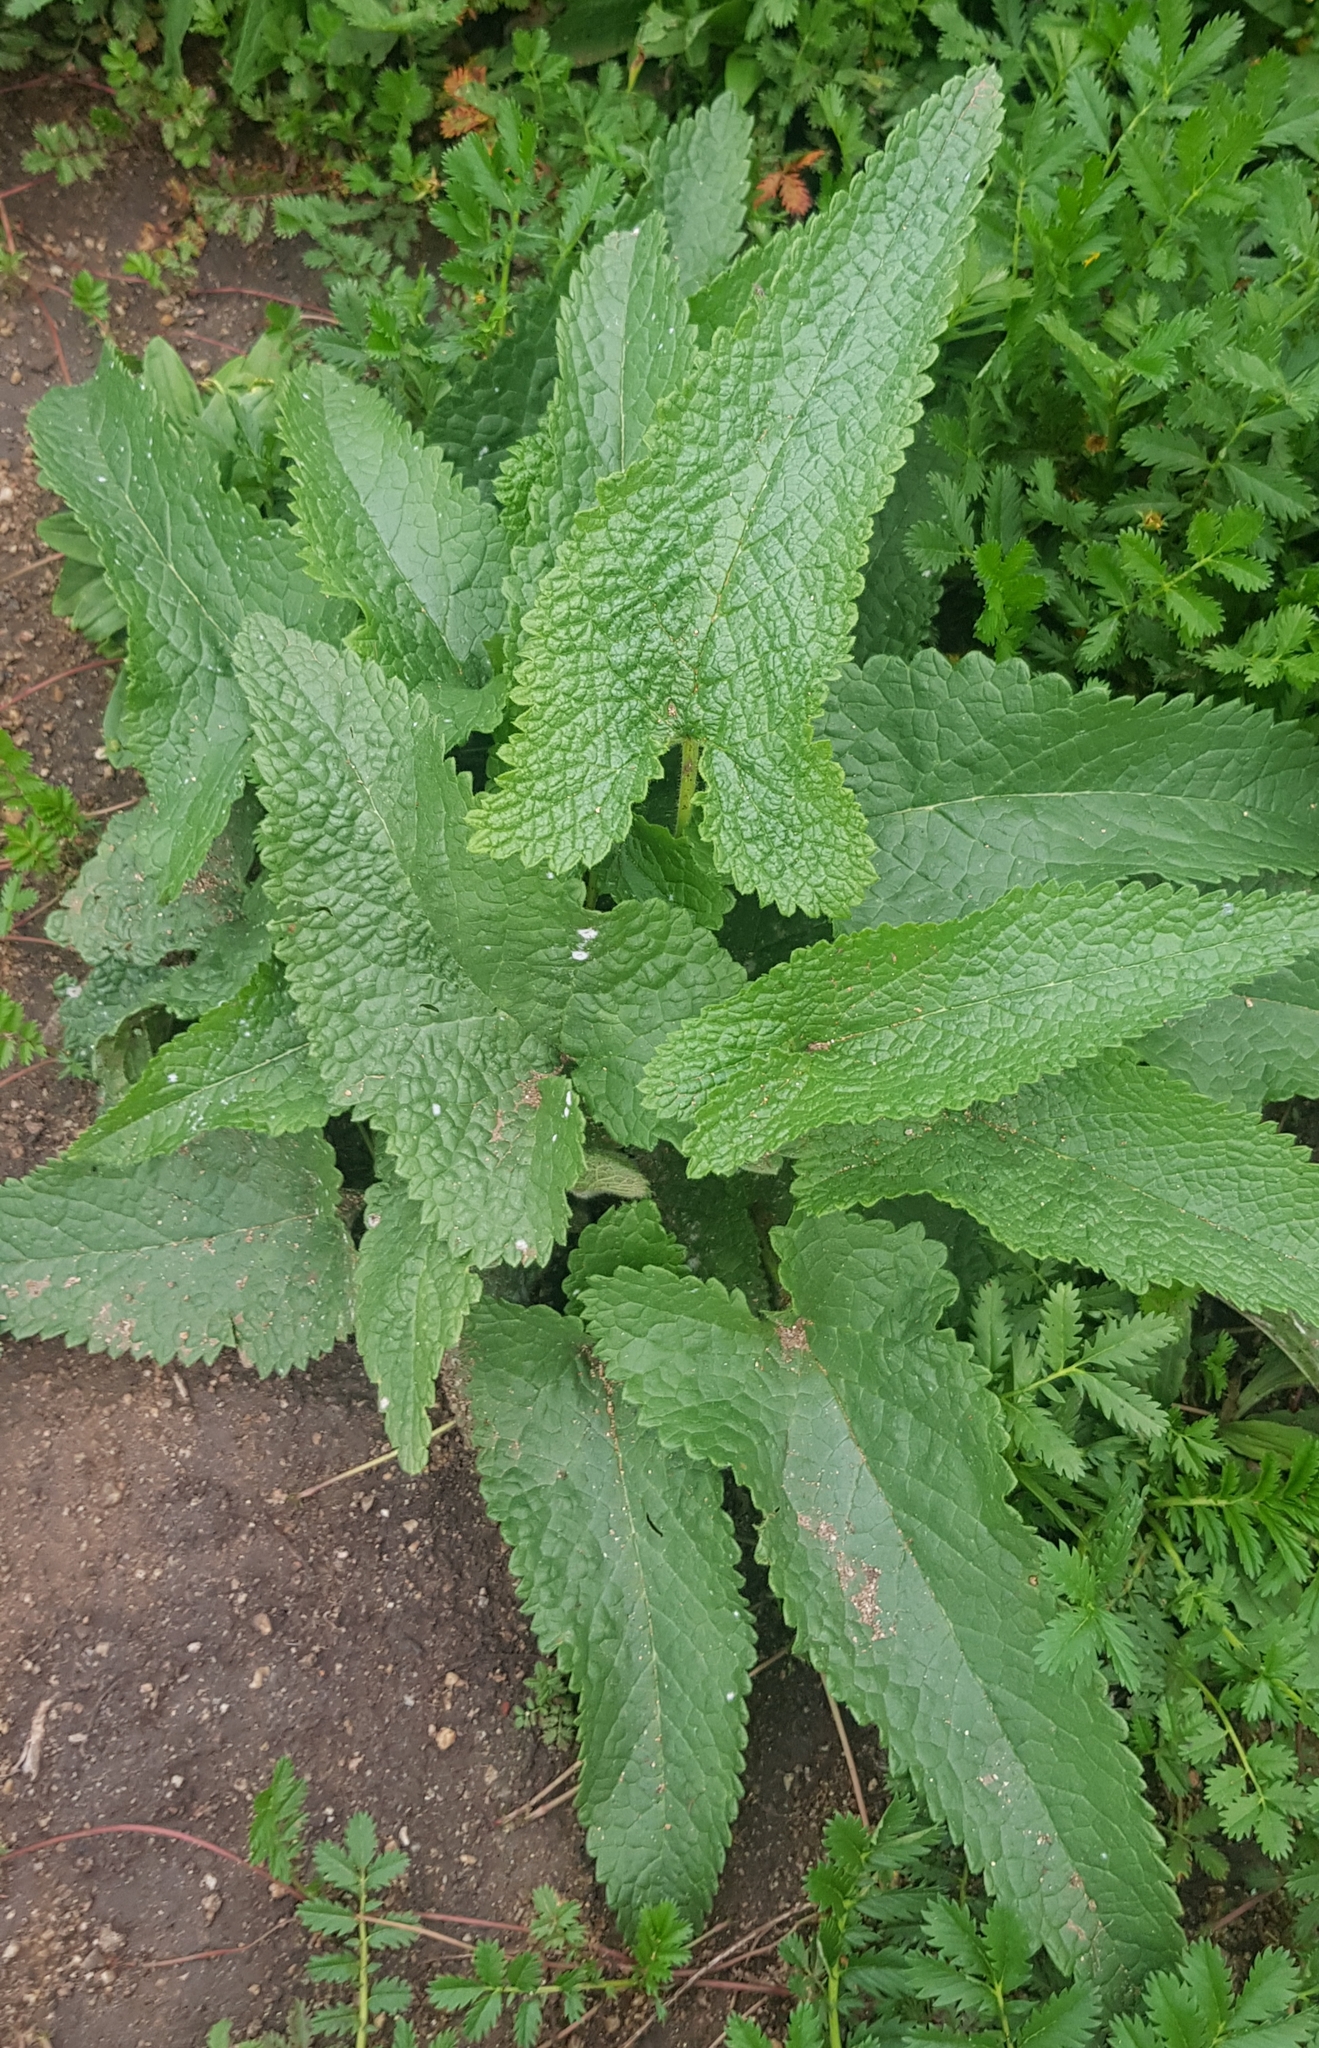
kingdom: Plantae
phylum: Tracheophyta
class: Magnoliopsida
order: Lamiales
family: Lamiaceae
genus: Phlomoides
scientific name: Phlomoides tuberosa
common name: Tuberous jerusalem sage
